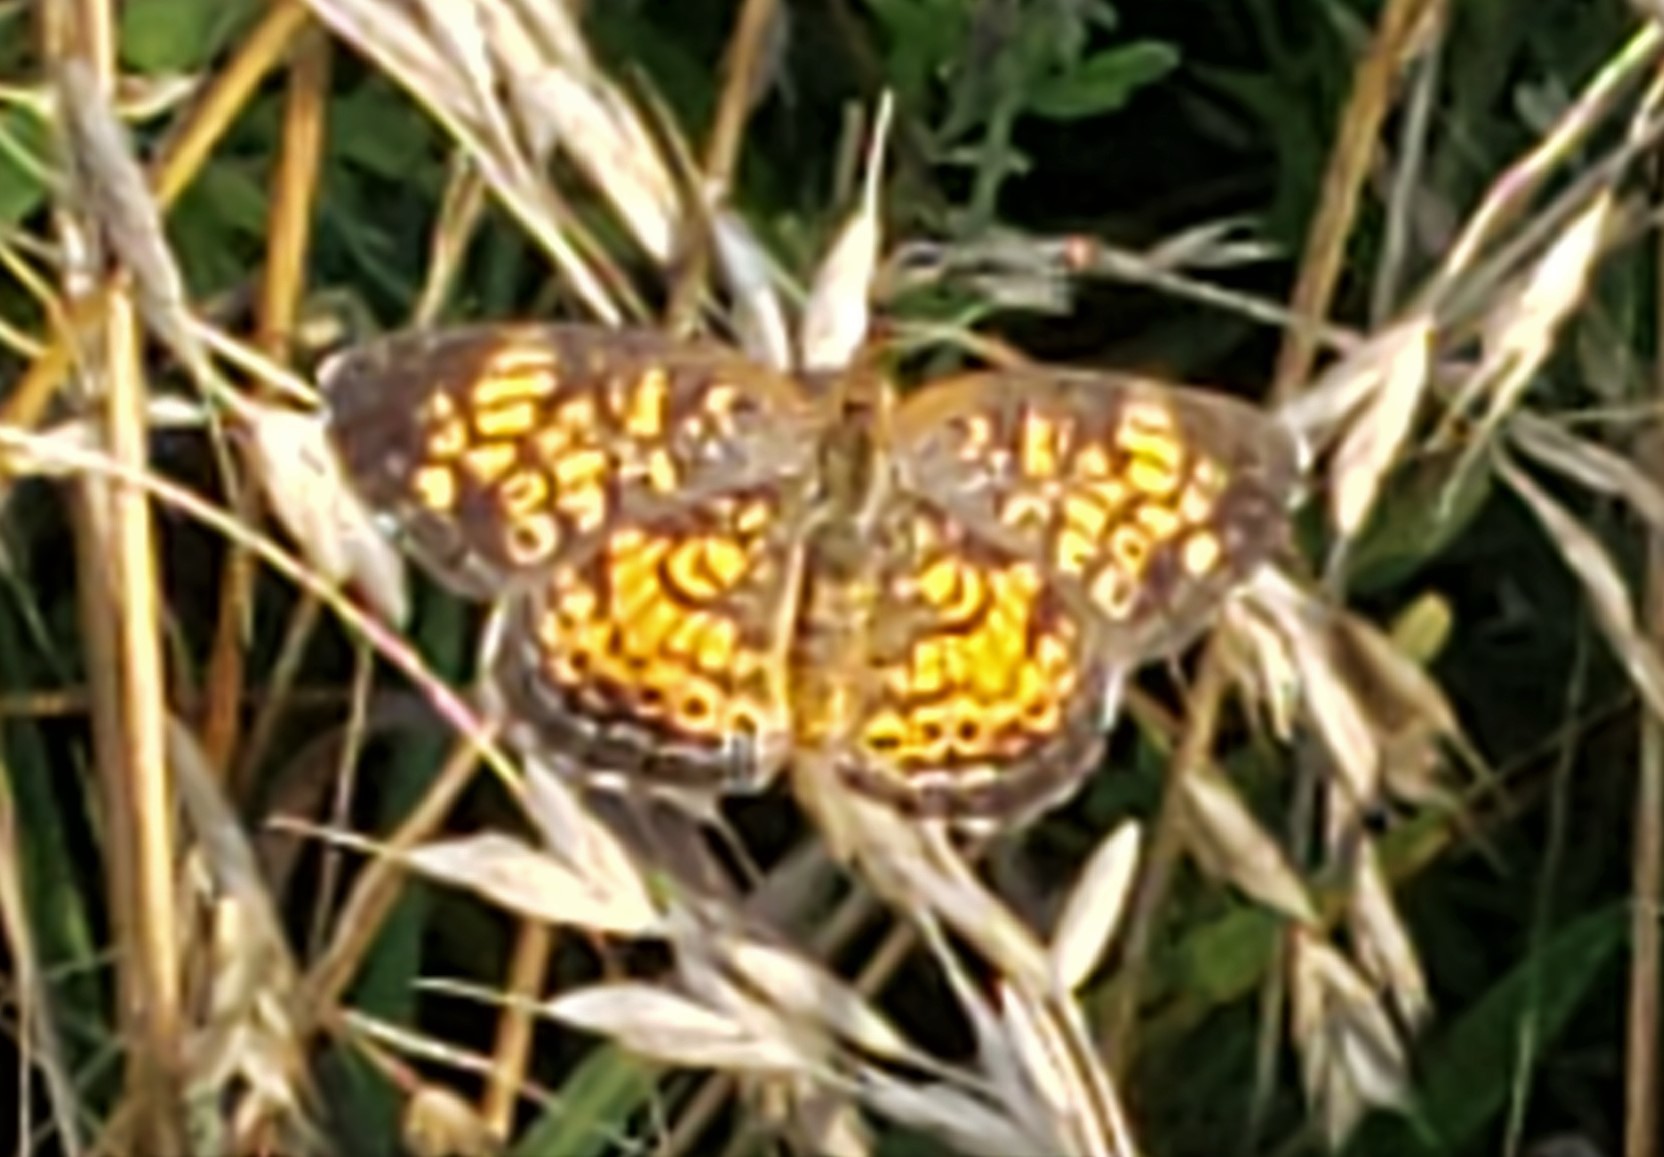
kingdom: Animalia
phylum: Arthropoda
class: Insecta
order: Lepidoptera
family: Nymphalidae
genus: Phyciodes
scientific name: Phyciodes tharos
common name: Pearl crescent
